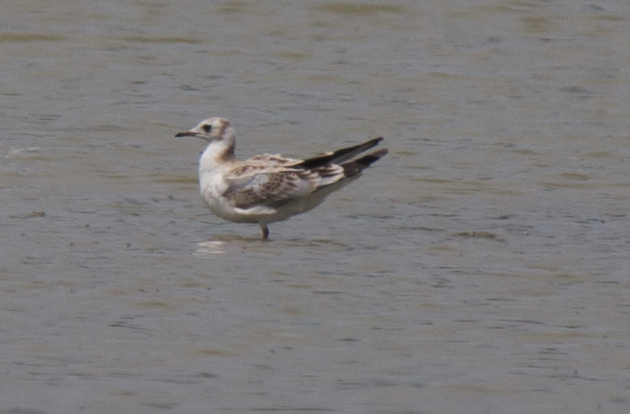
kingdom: Animalia
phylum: Chordata
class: Aves
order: Charadriiformes
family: Laridae
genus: Chroicocephalus
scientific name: Chroicocephalus ridibundus
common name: Black-headed gull
